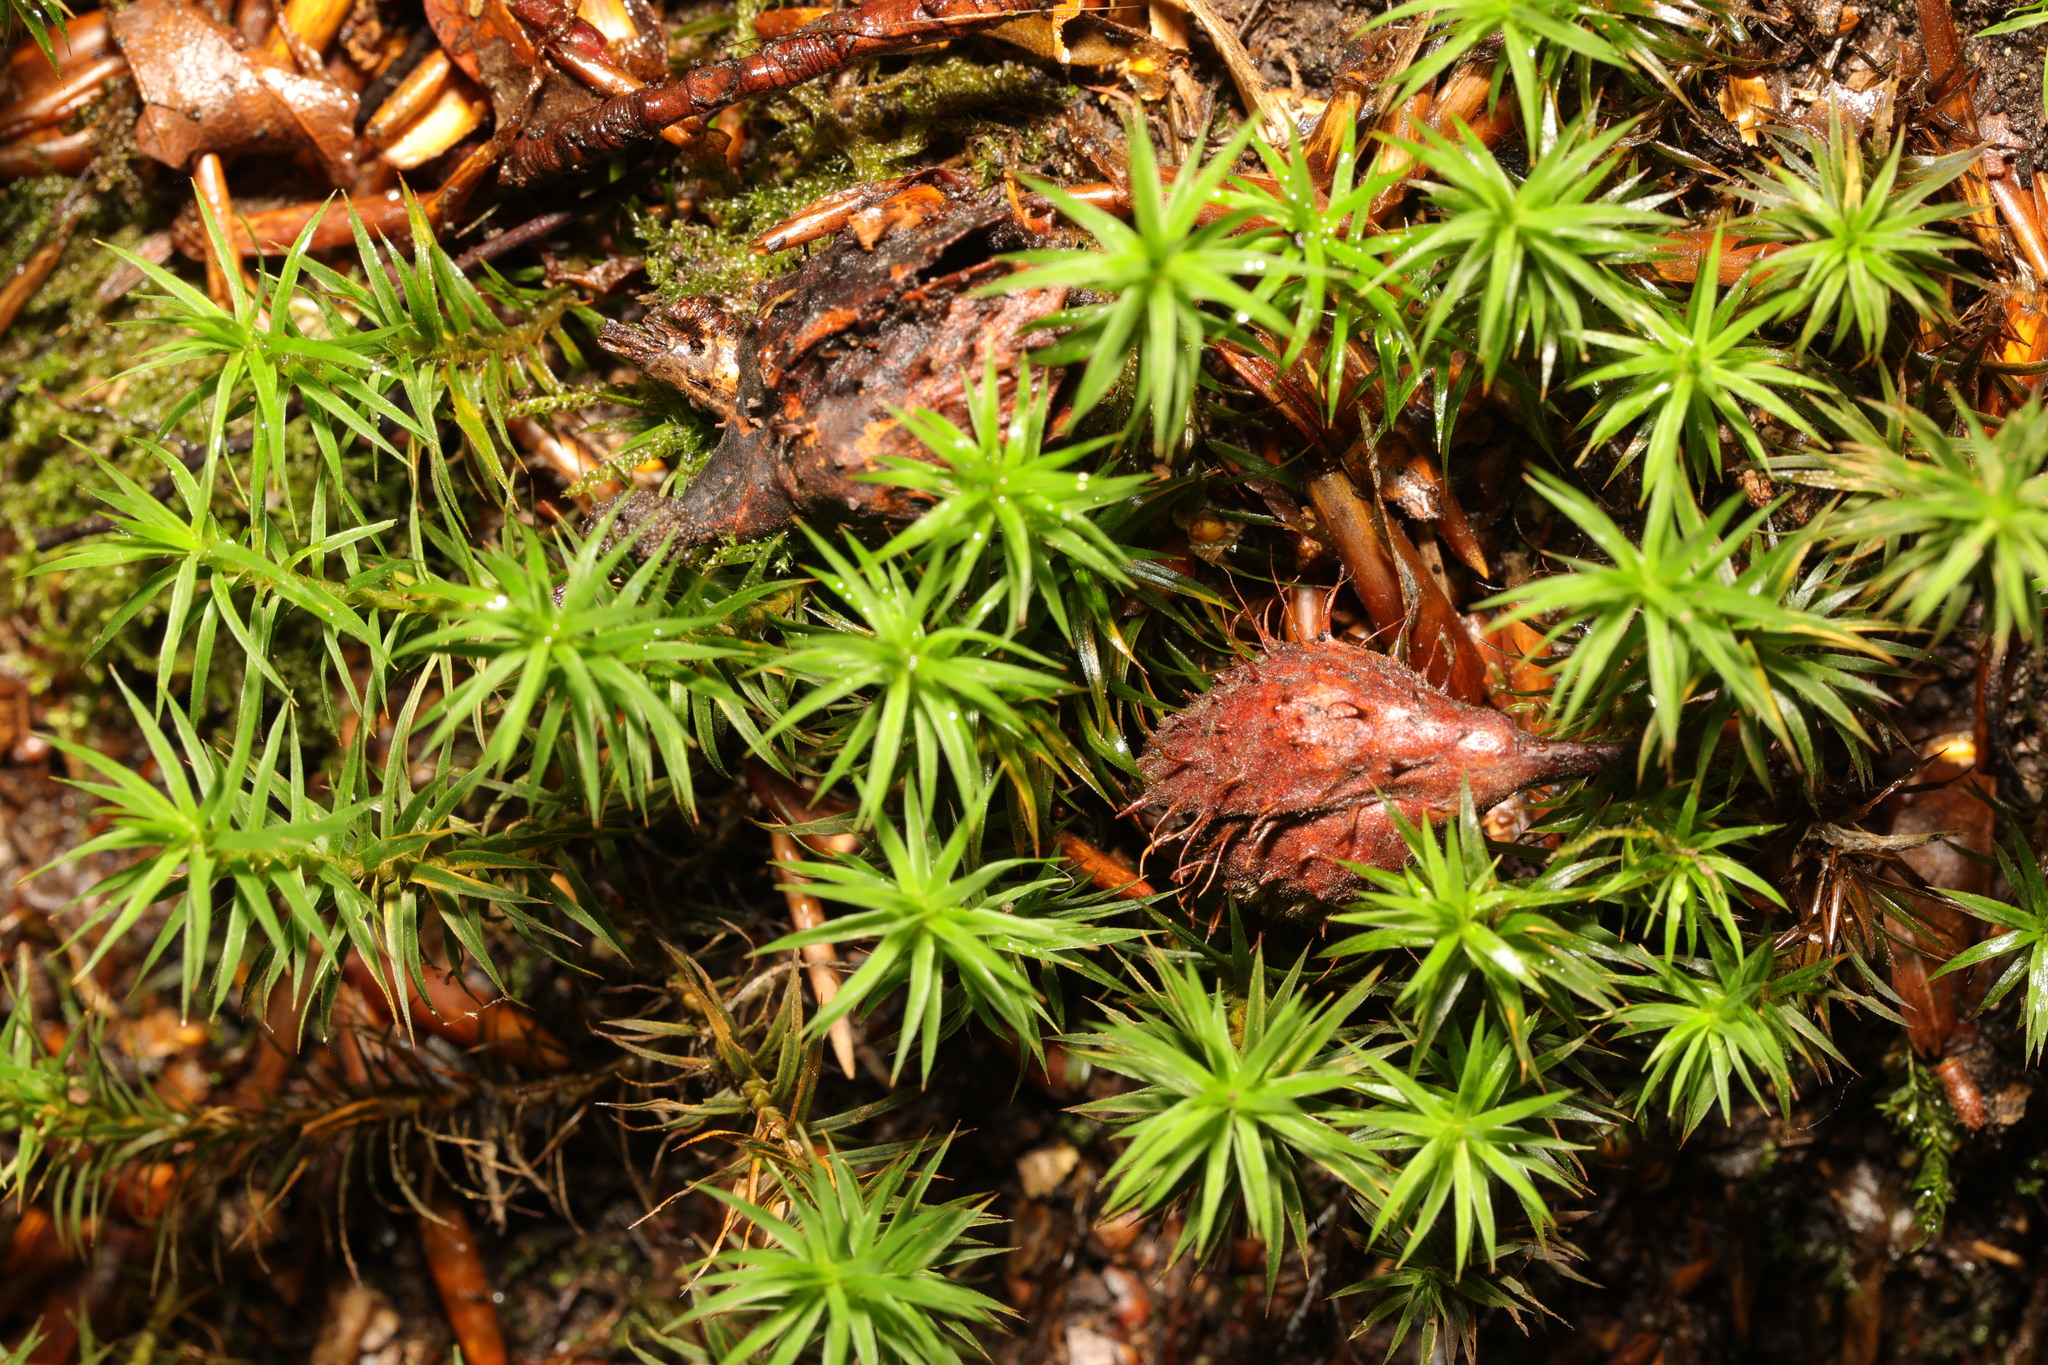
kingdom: Plantae
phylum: Bryophyta
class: Polytrichopsida
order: Polytrichales
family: Polytrichaceae
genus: Polytrichum
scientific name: Polytrichum commune
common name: Common haircap
